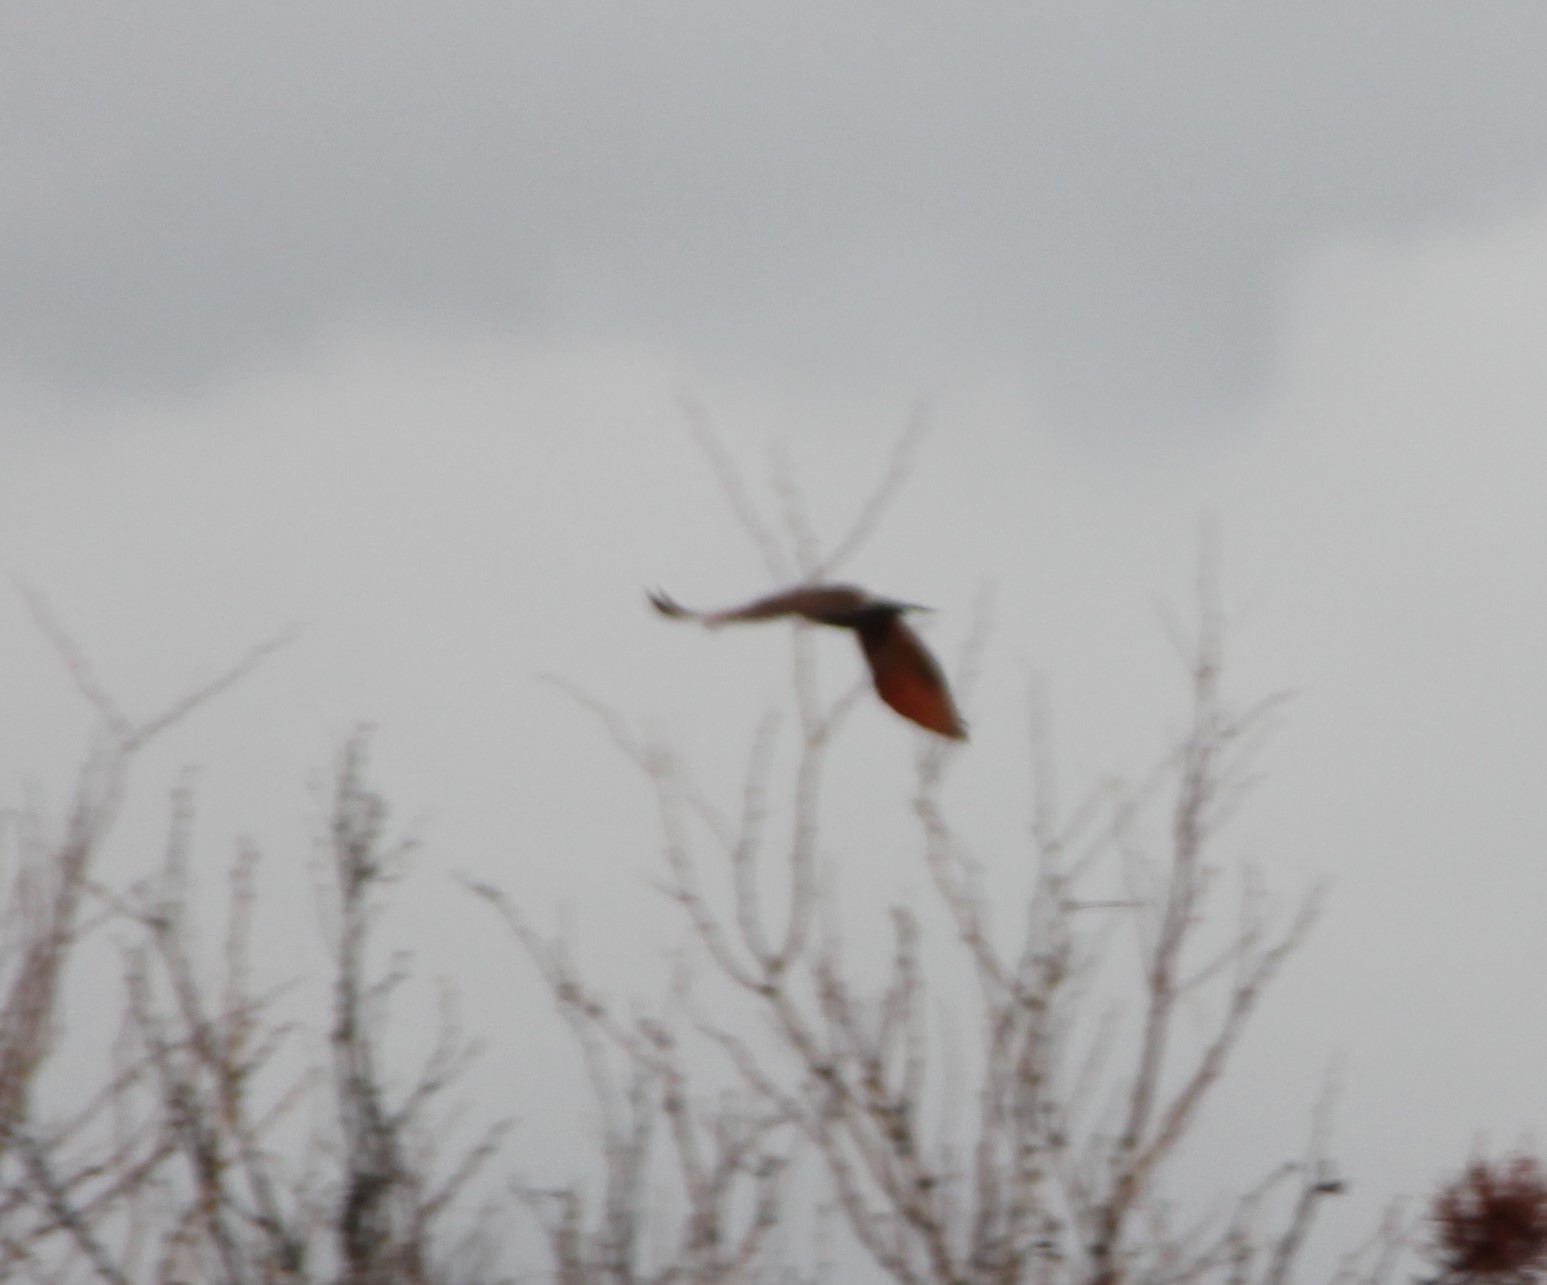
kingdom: Animalia
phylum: Chordata
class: Aves
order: Piciformes
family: Picidae
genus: Colaptes
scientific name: Colaptes auratus
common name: Northern flicker
